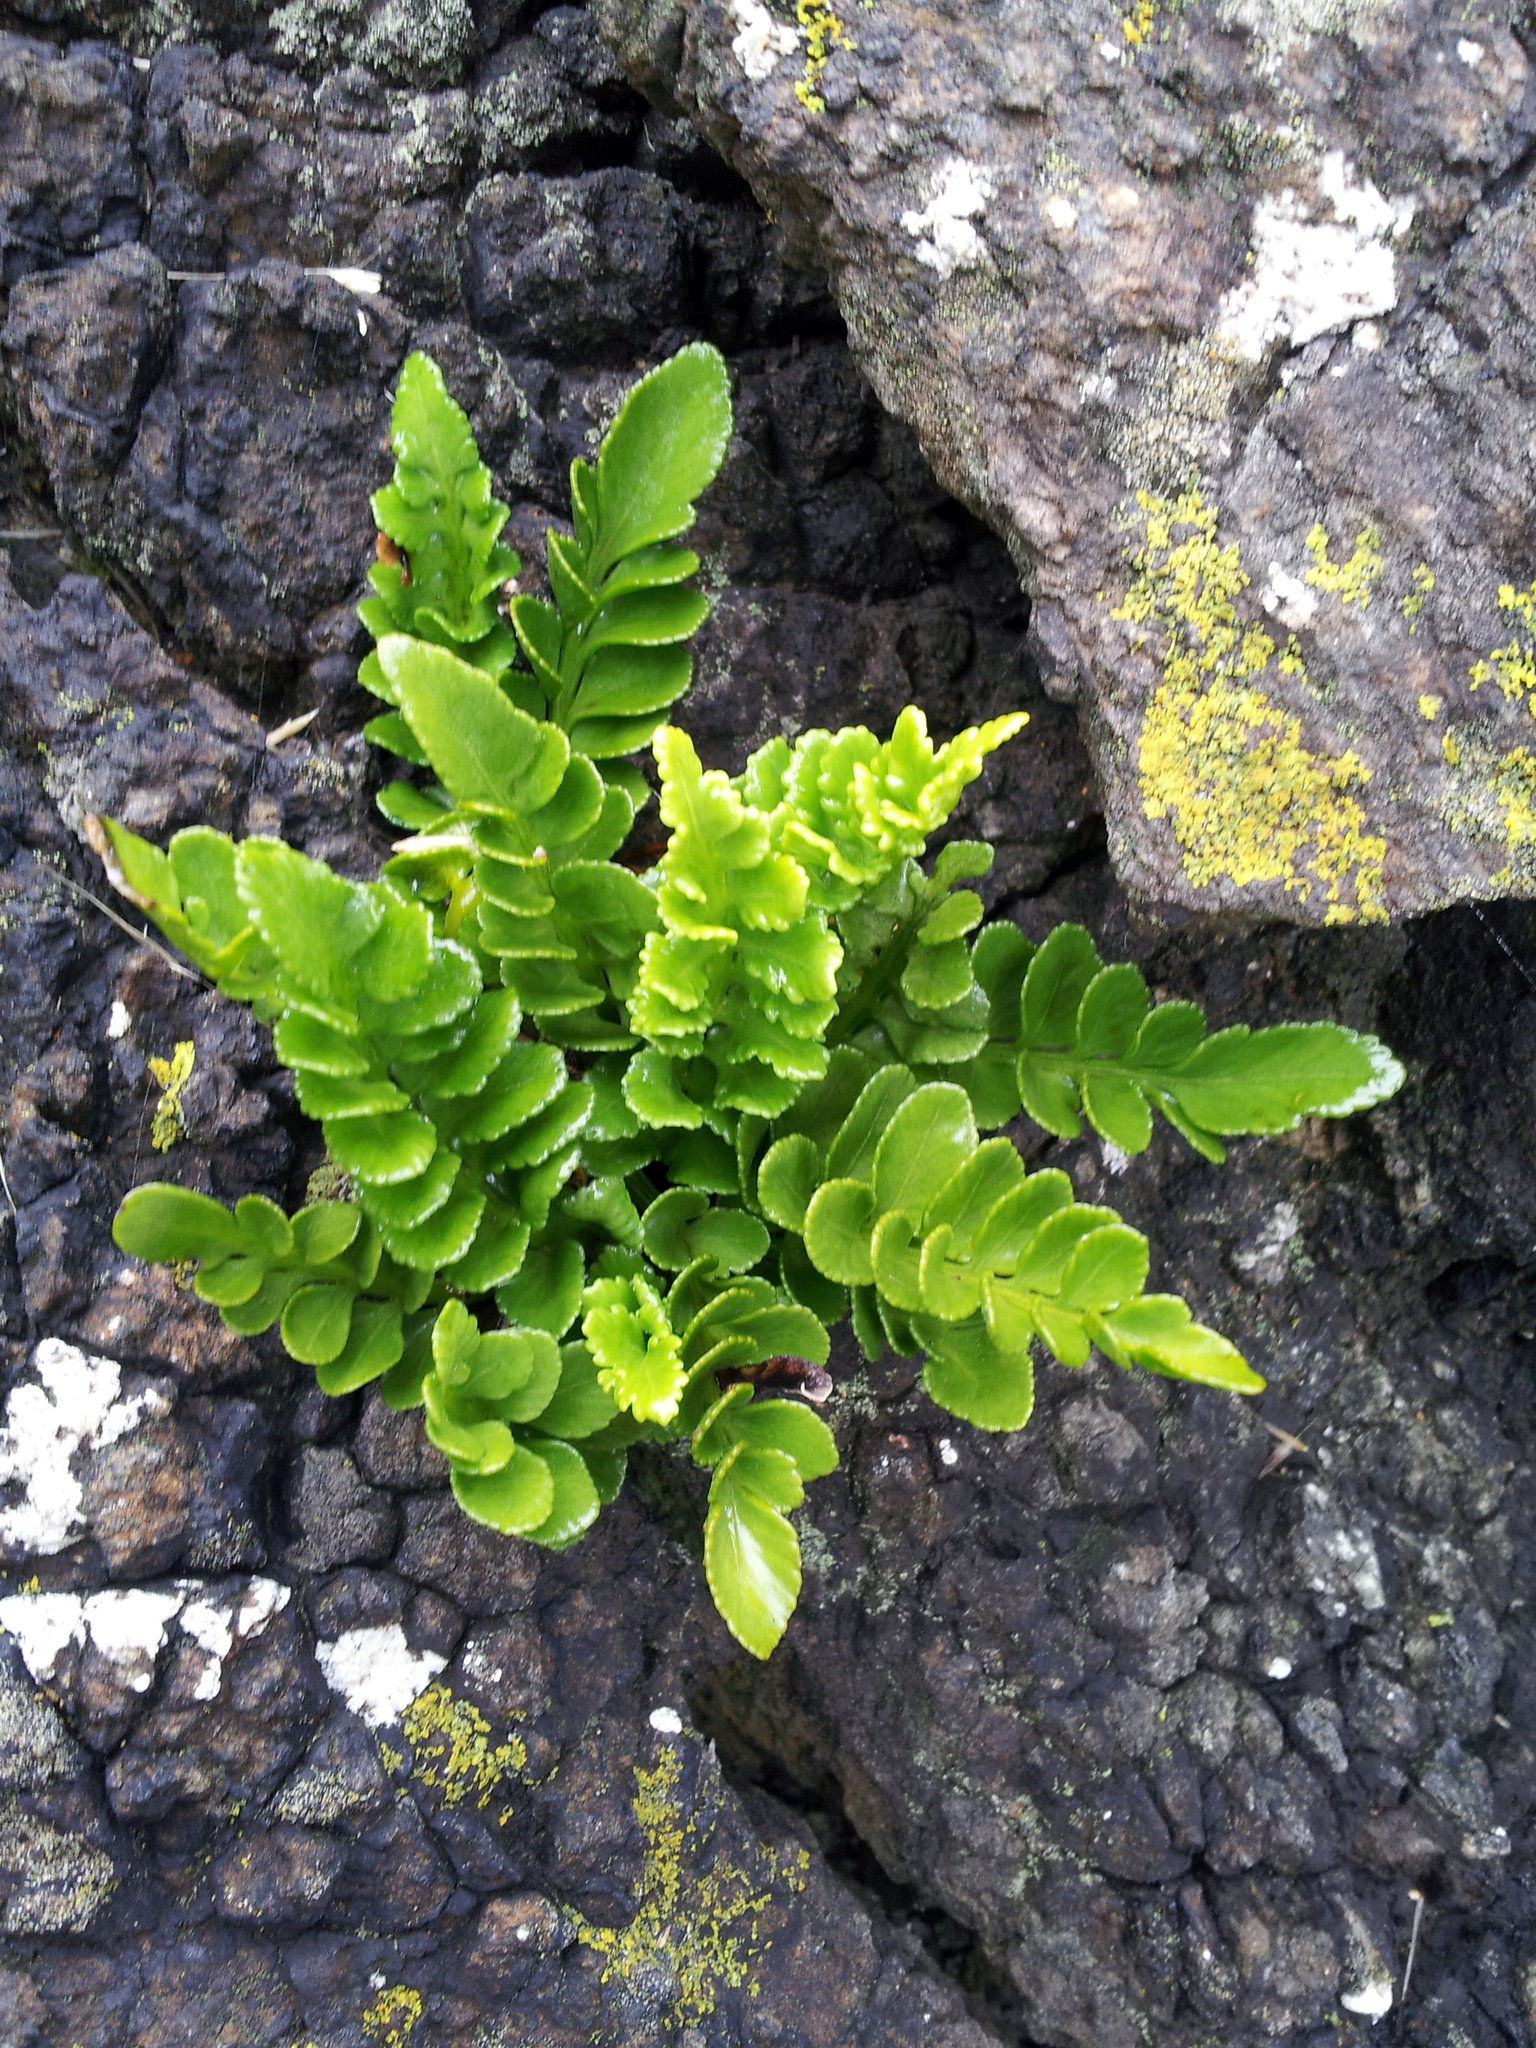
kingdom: Plantae
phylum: Tracheophyta
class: Polypodiopsida
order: Polypodiales
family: Aspleniaceae
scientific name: Aspleniaceae
